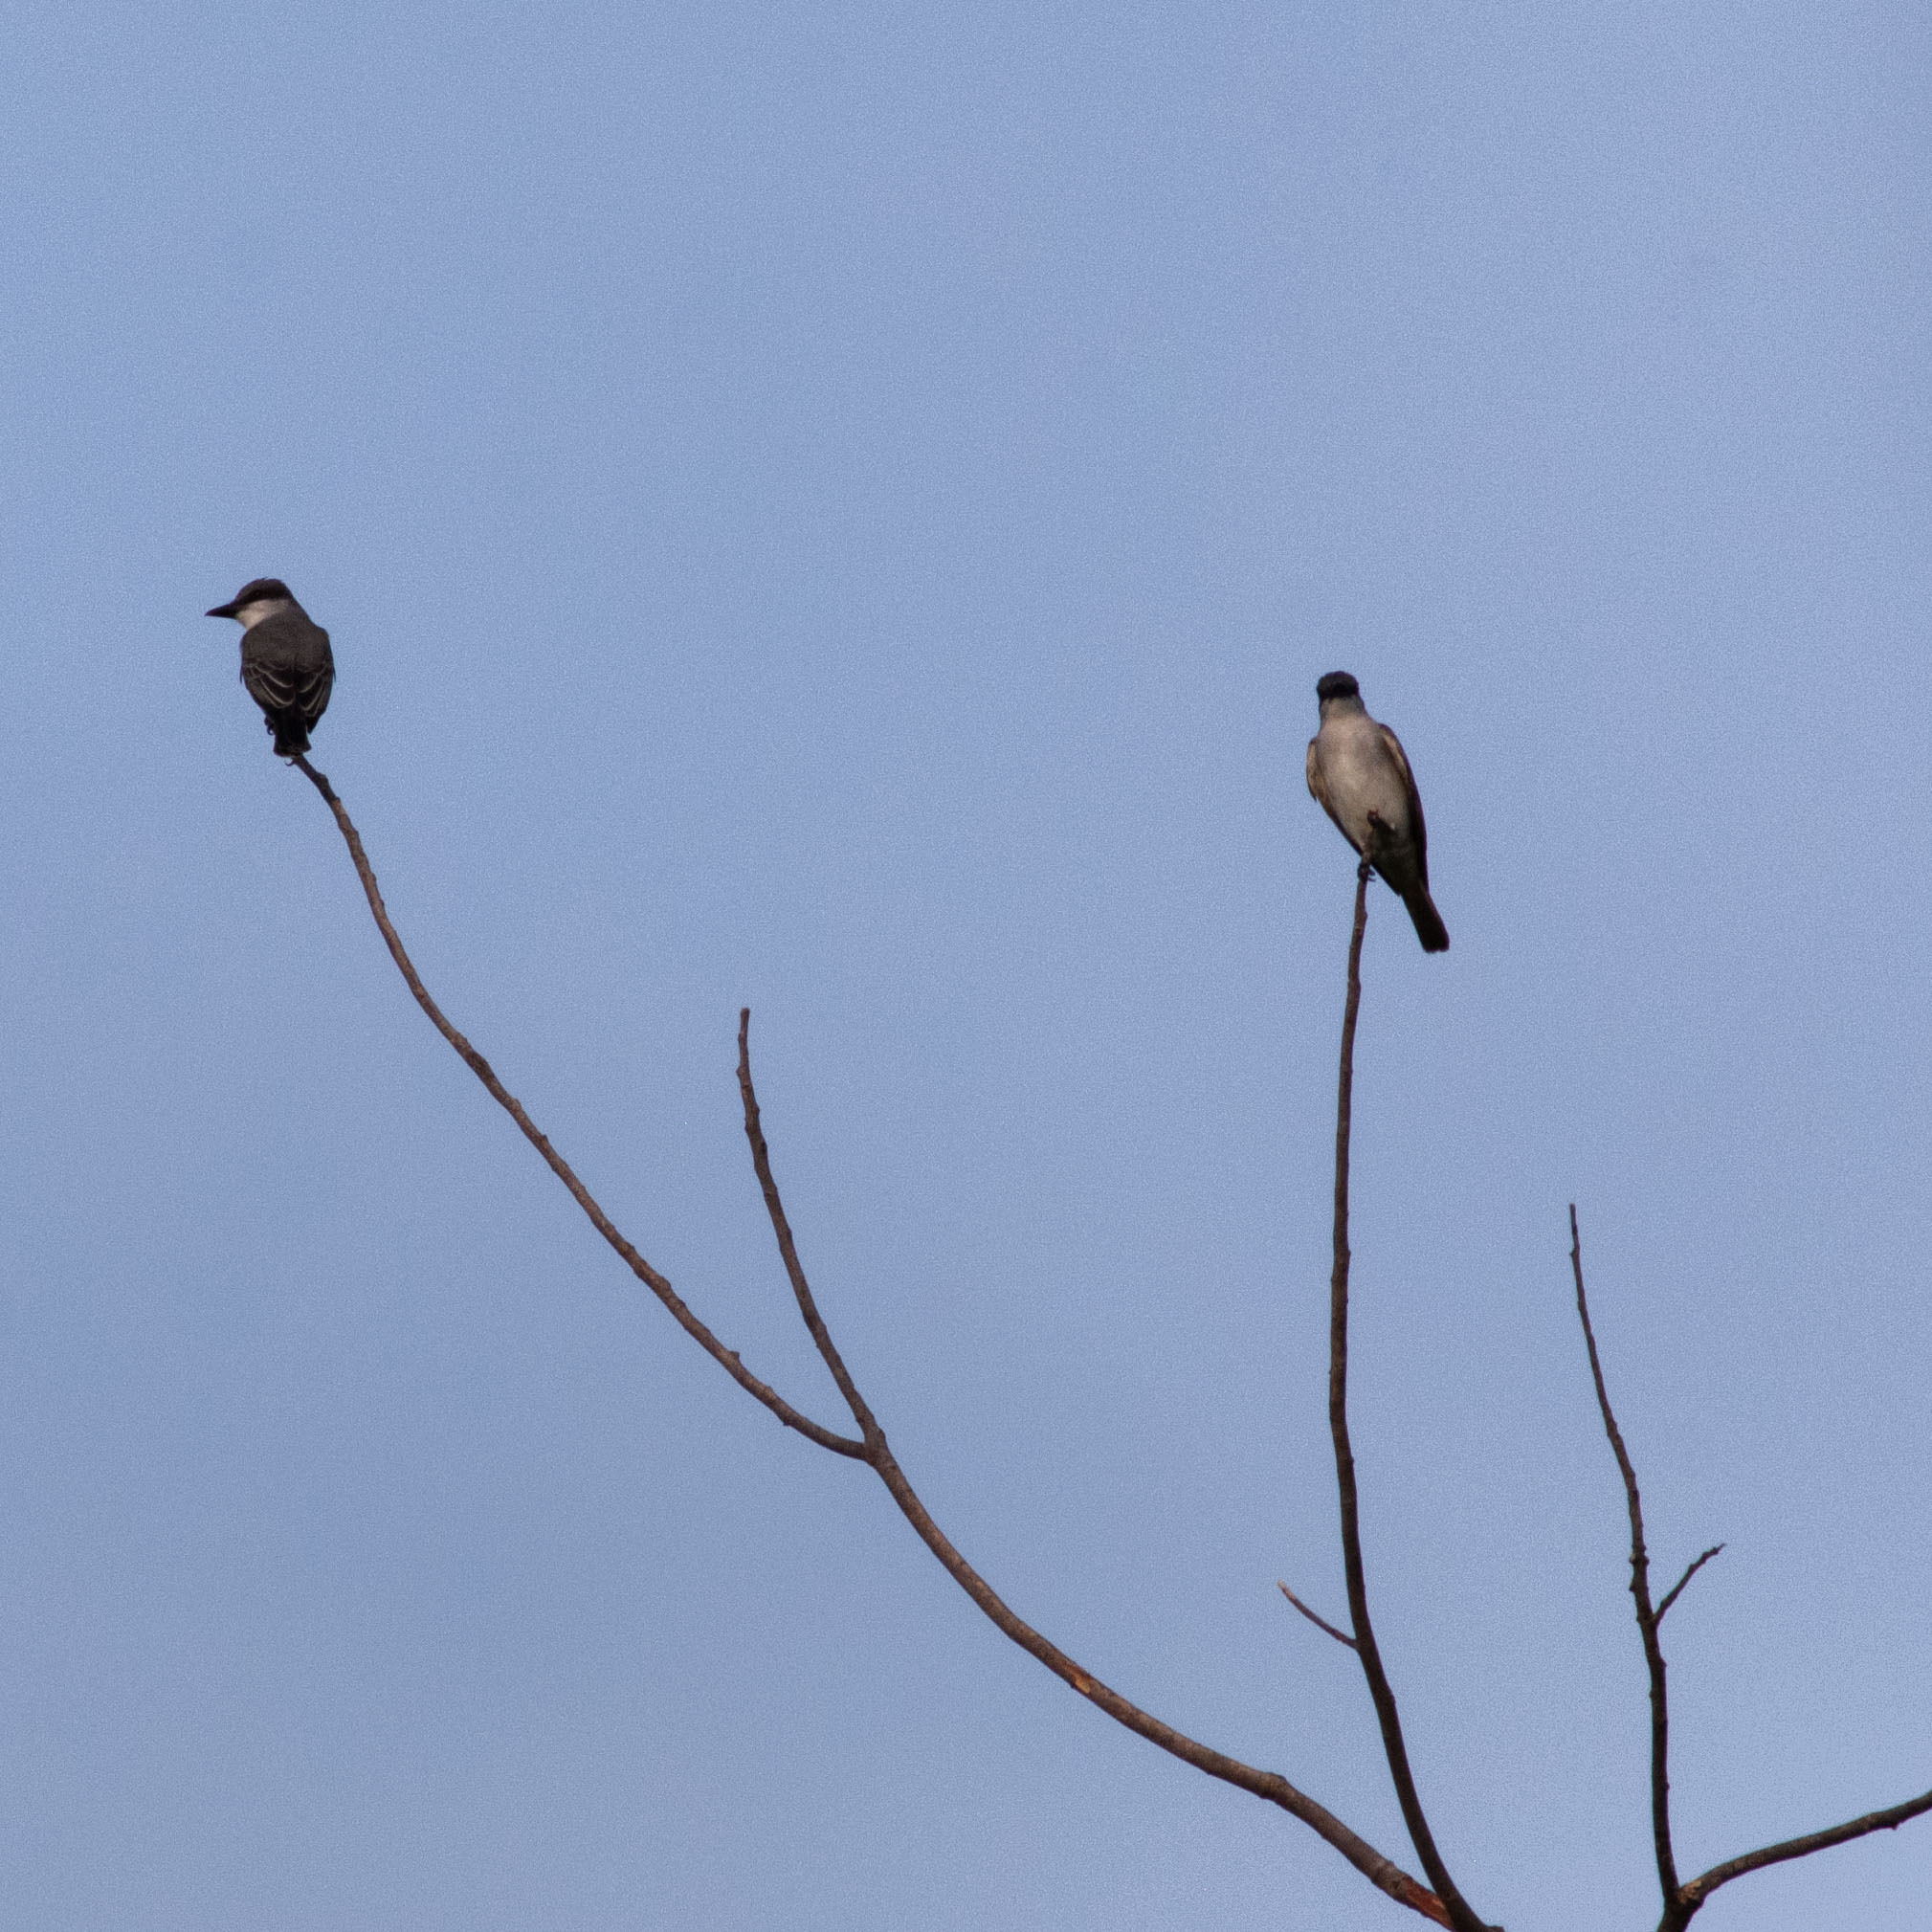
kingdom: Animalia
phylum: Chordata
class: Aves
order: Passeriformes
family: Tyrannidae
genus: Tyrannus
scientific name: Tyrannus dominicensis
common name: Gray kingbird
